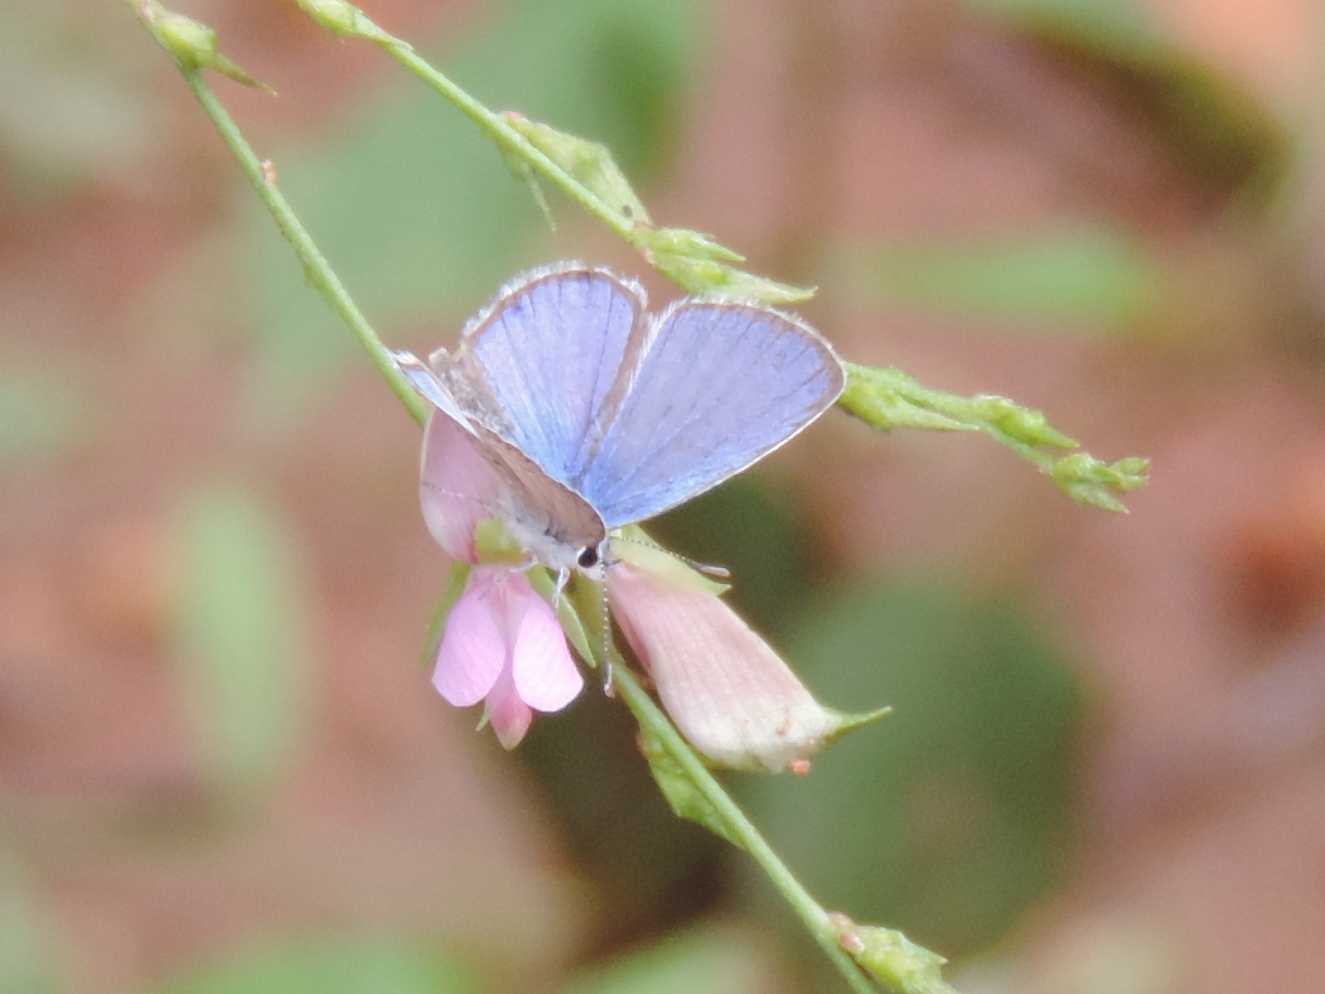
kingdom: Animalia
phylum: Arthropoda
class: Insecta
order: Lepidoptera
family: Lycaenidae
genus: Celastrina
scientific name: Celastrina
